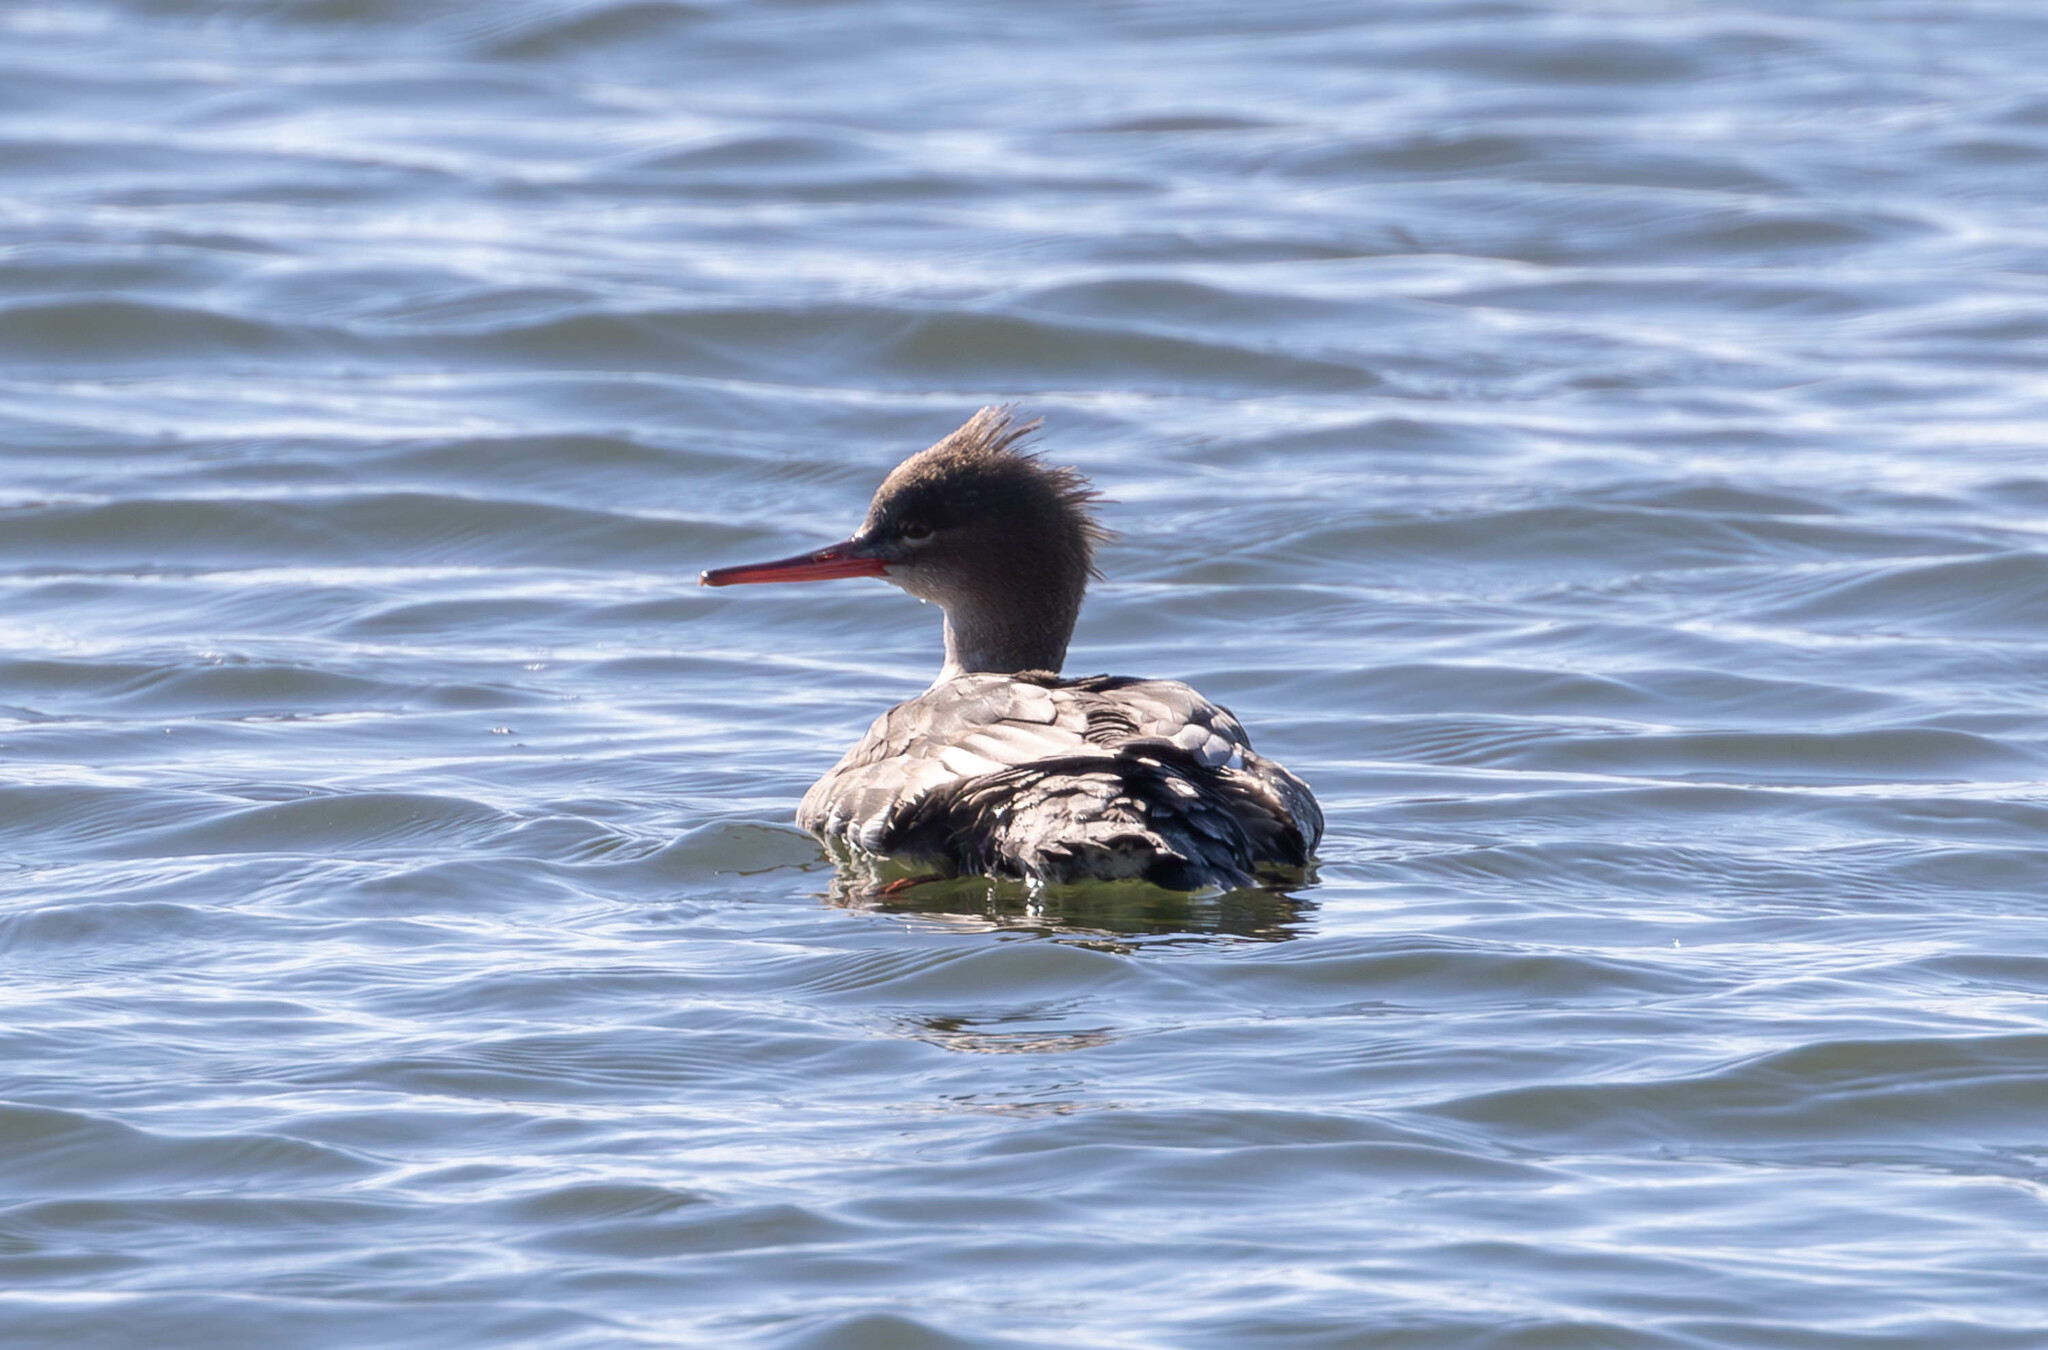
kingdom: Animalia
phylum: Chordata
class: Aves
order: Anseriformes
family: Anatidae
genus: Mergus
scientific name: Mergus serrator
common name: Red-breasted merganser
